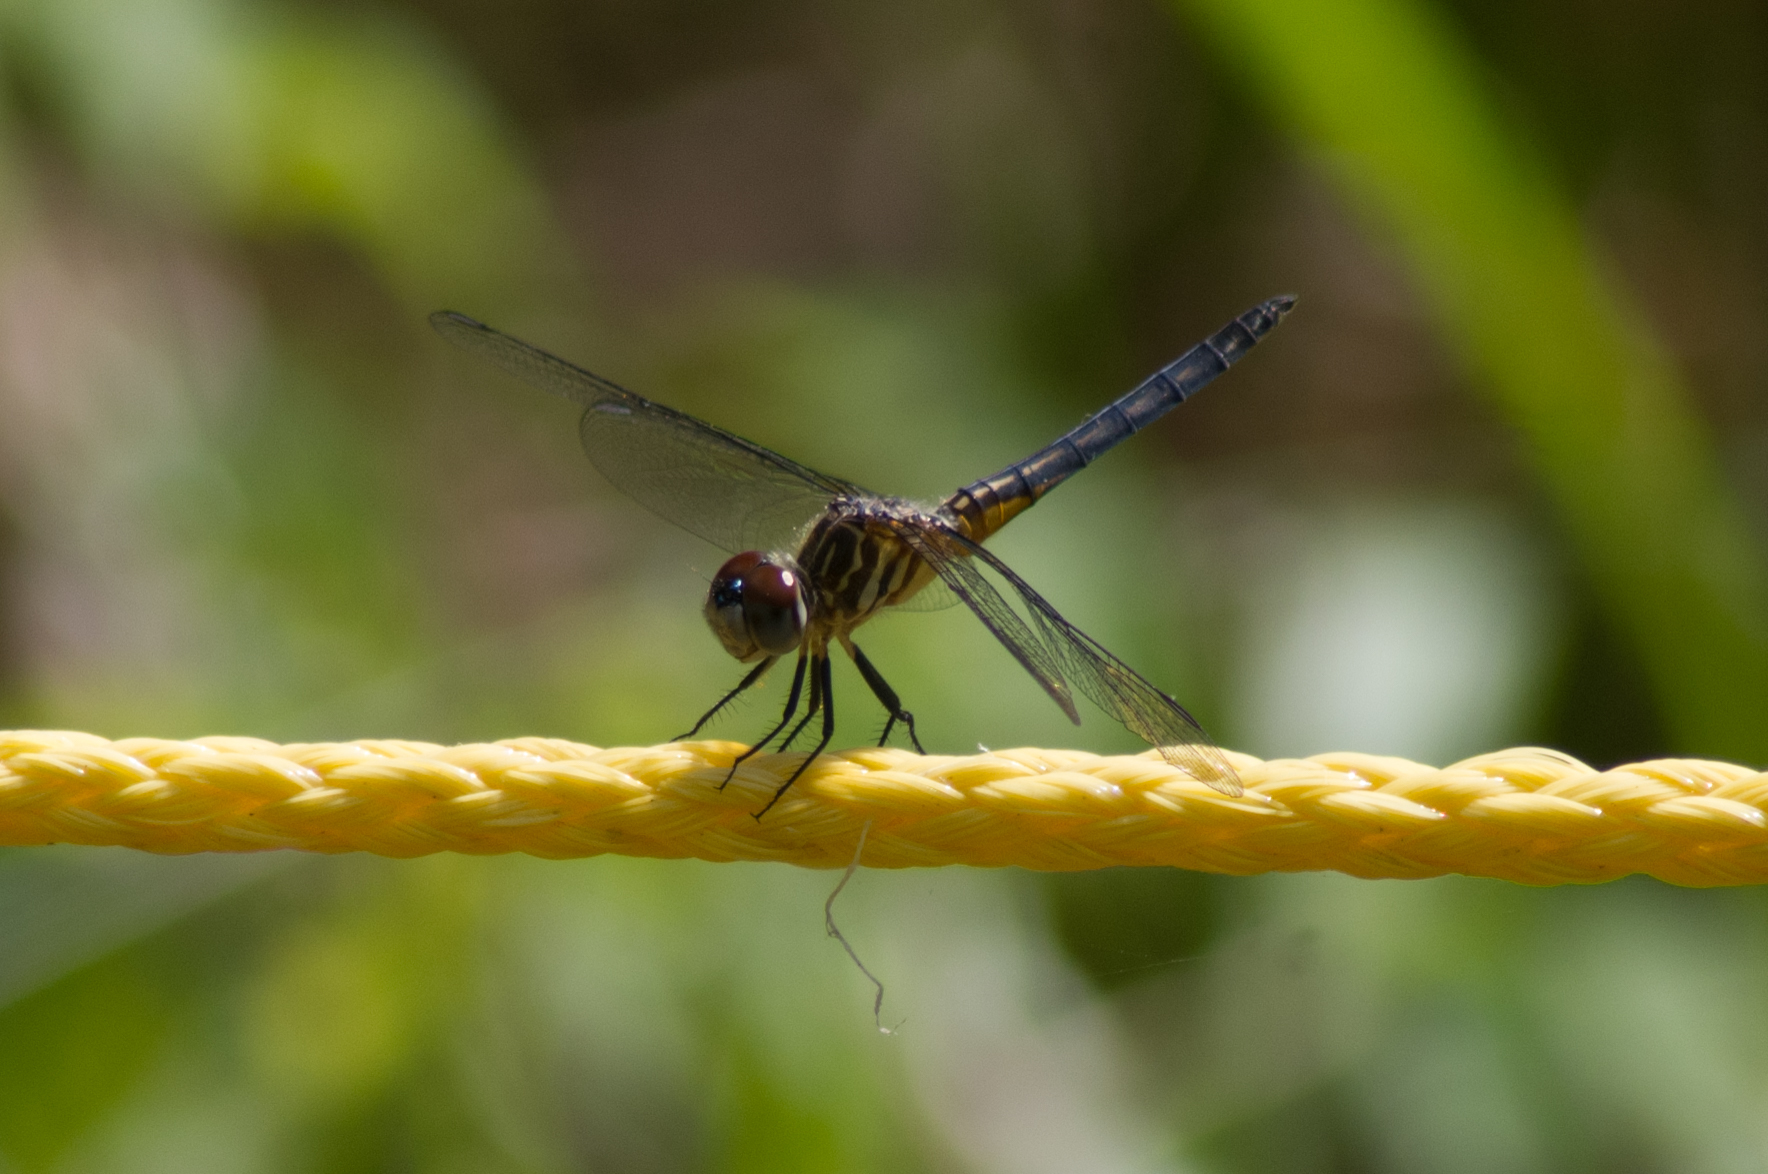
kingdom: Animalia
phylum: Arthropoda
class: Insecta
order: Odonata
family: Libellulidae
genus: Pachydiplax
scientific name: Pachydiplax longipennis
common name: Blue dasher
